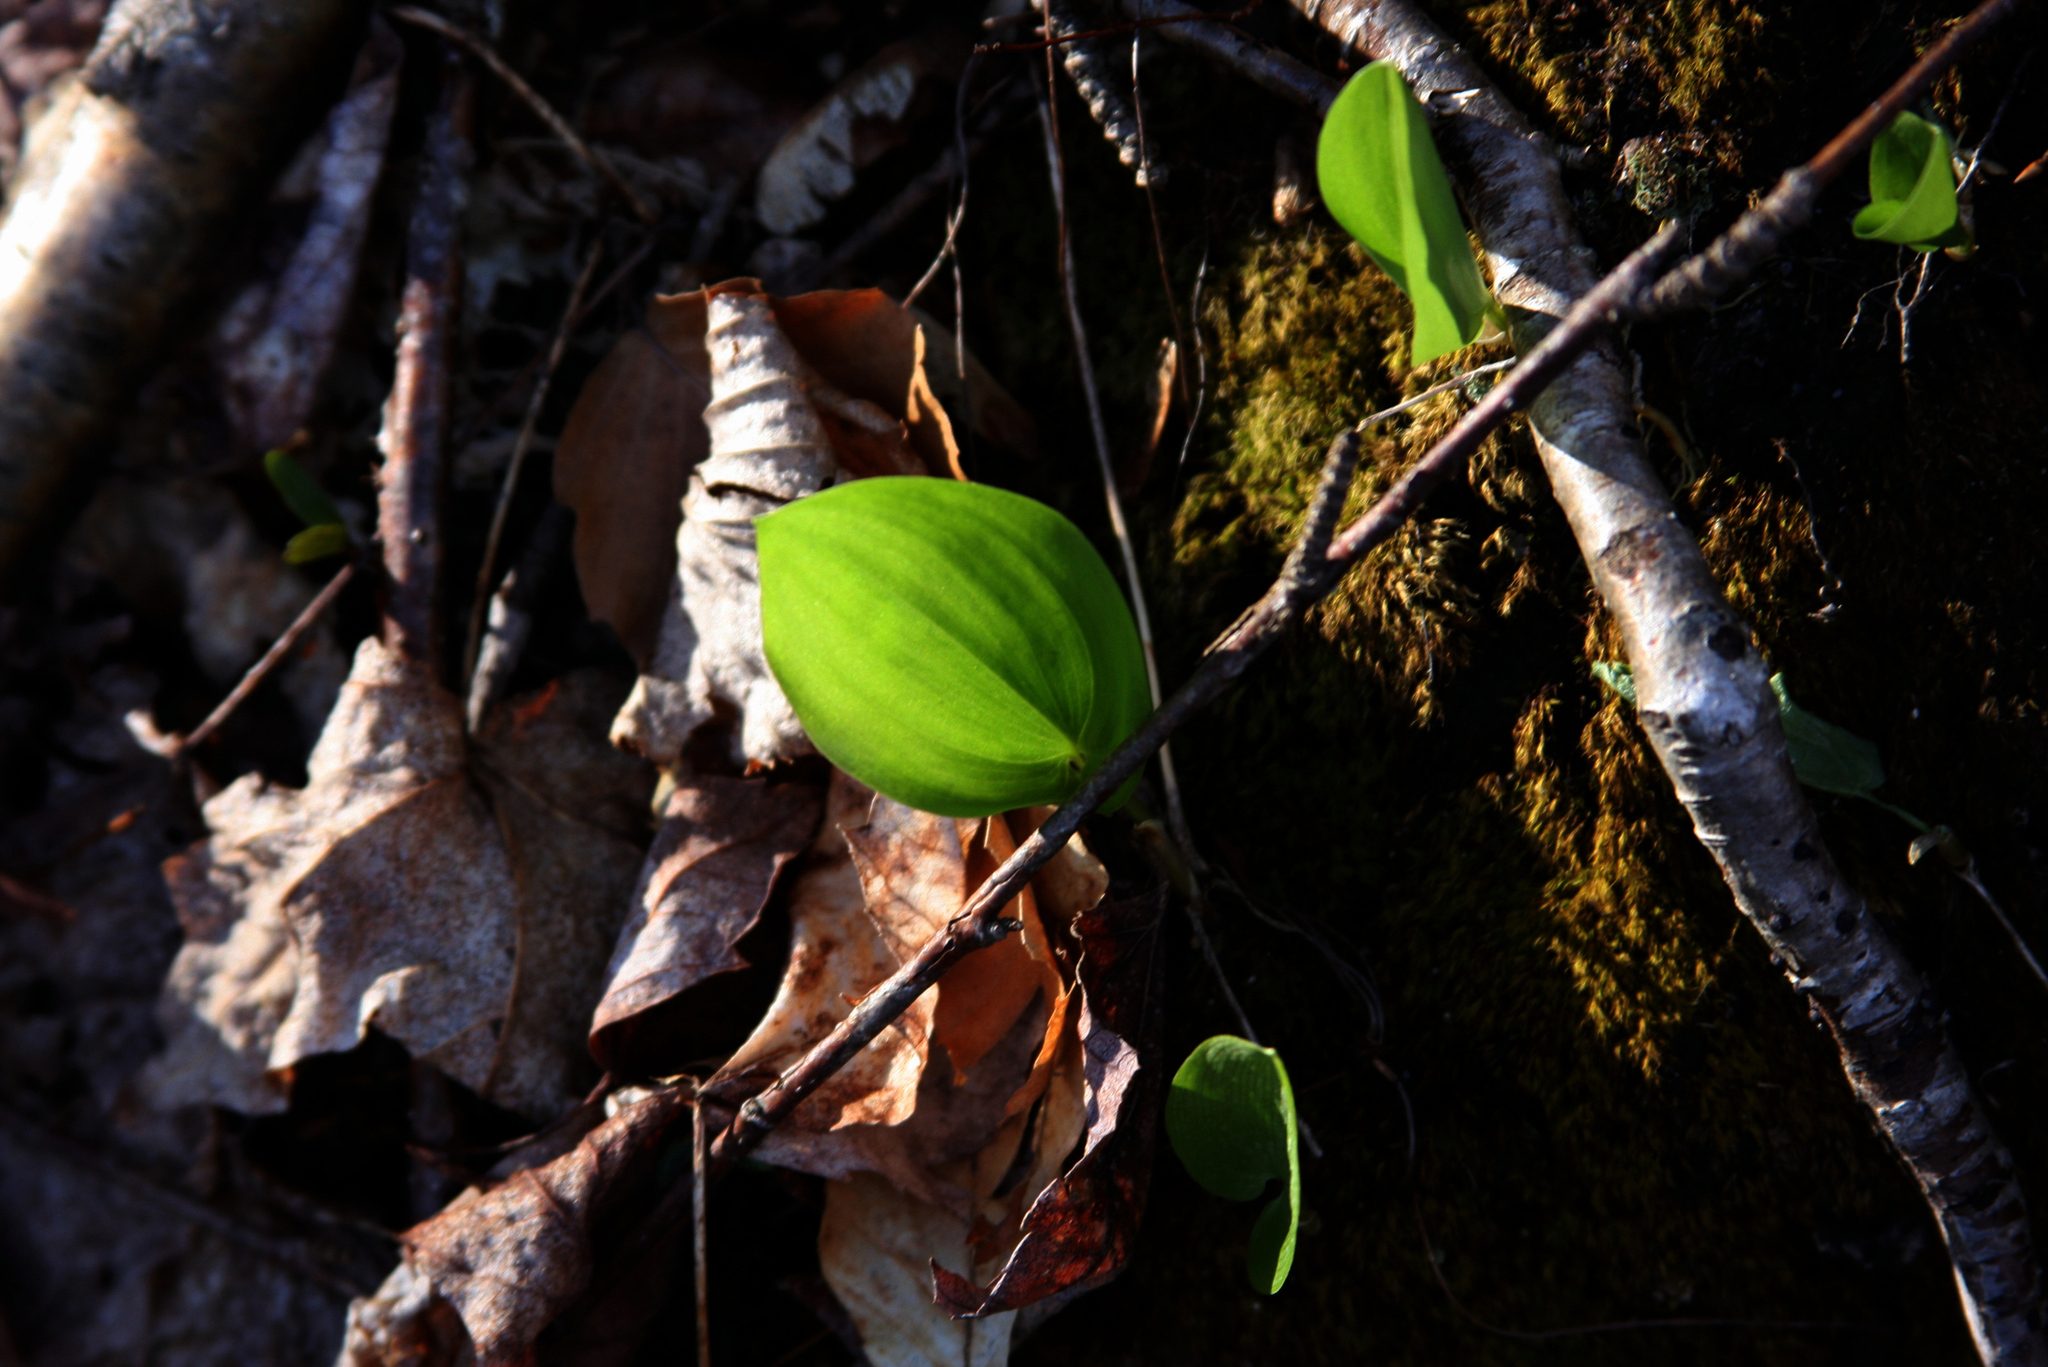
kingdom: Plantae
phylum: Tracheophyta
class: Liliopsida
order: Asparagales
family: Asparagaceae
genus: Maianthemum
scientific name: Maianthemum canadense
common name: False lily-of-the-valley
